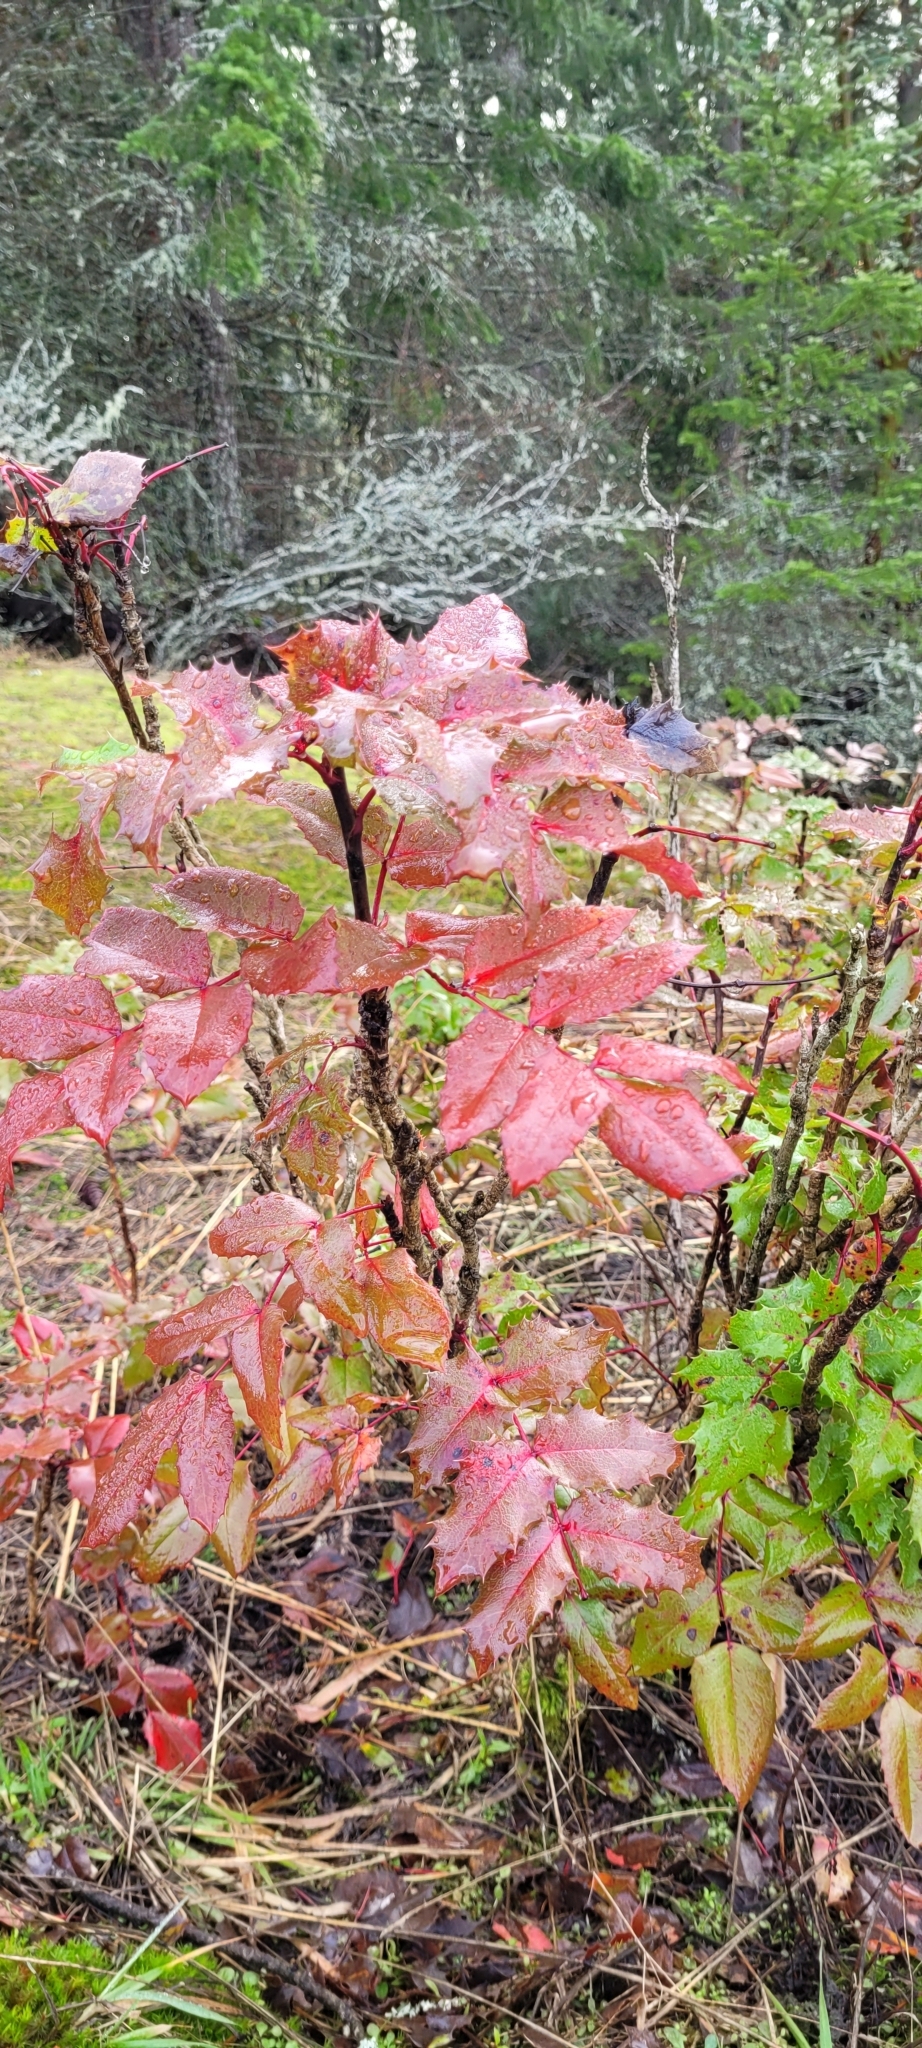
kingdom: Plantae
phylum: Tracheophyta
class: Magnoliopsida
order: Ranunculales
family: Berberidaceae
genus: Mahonia
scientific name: Mahonia aquifolium
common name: Oregon-grape
